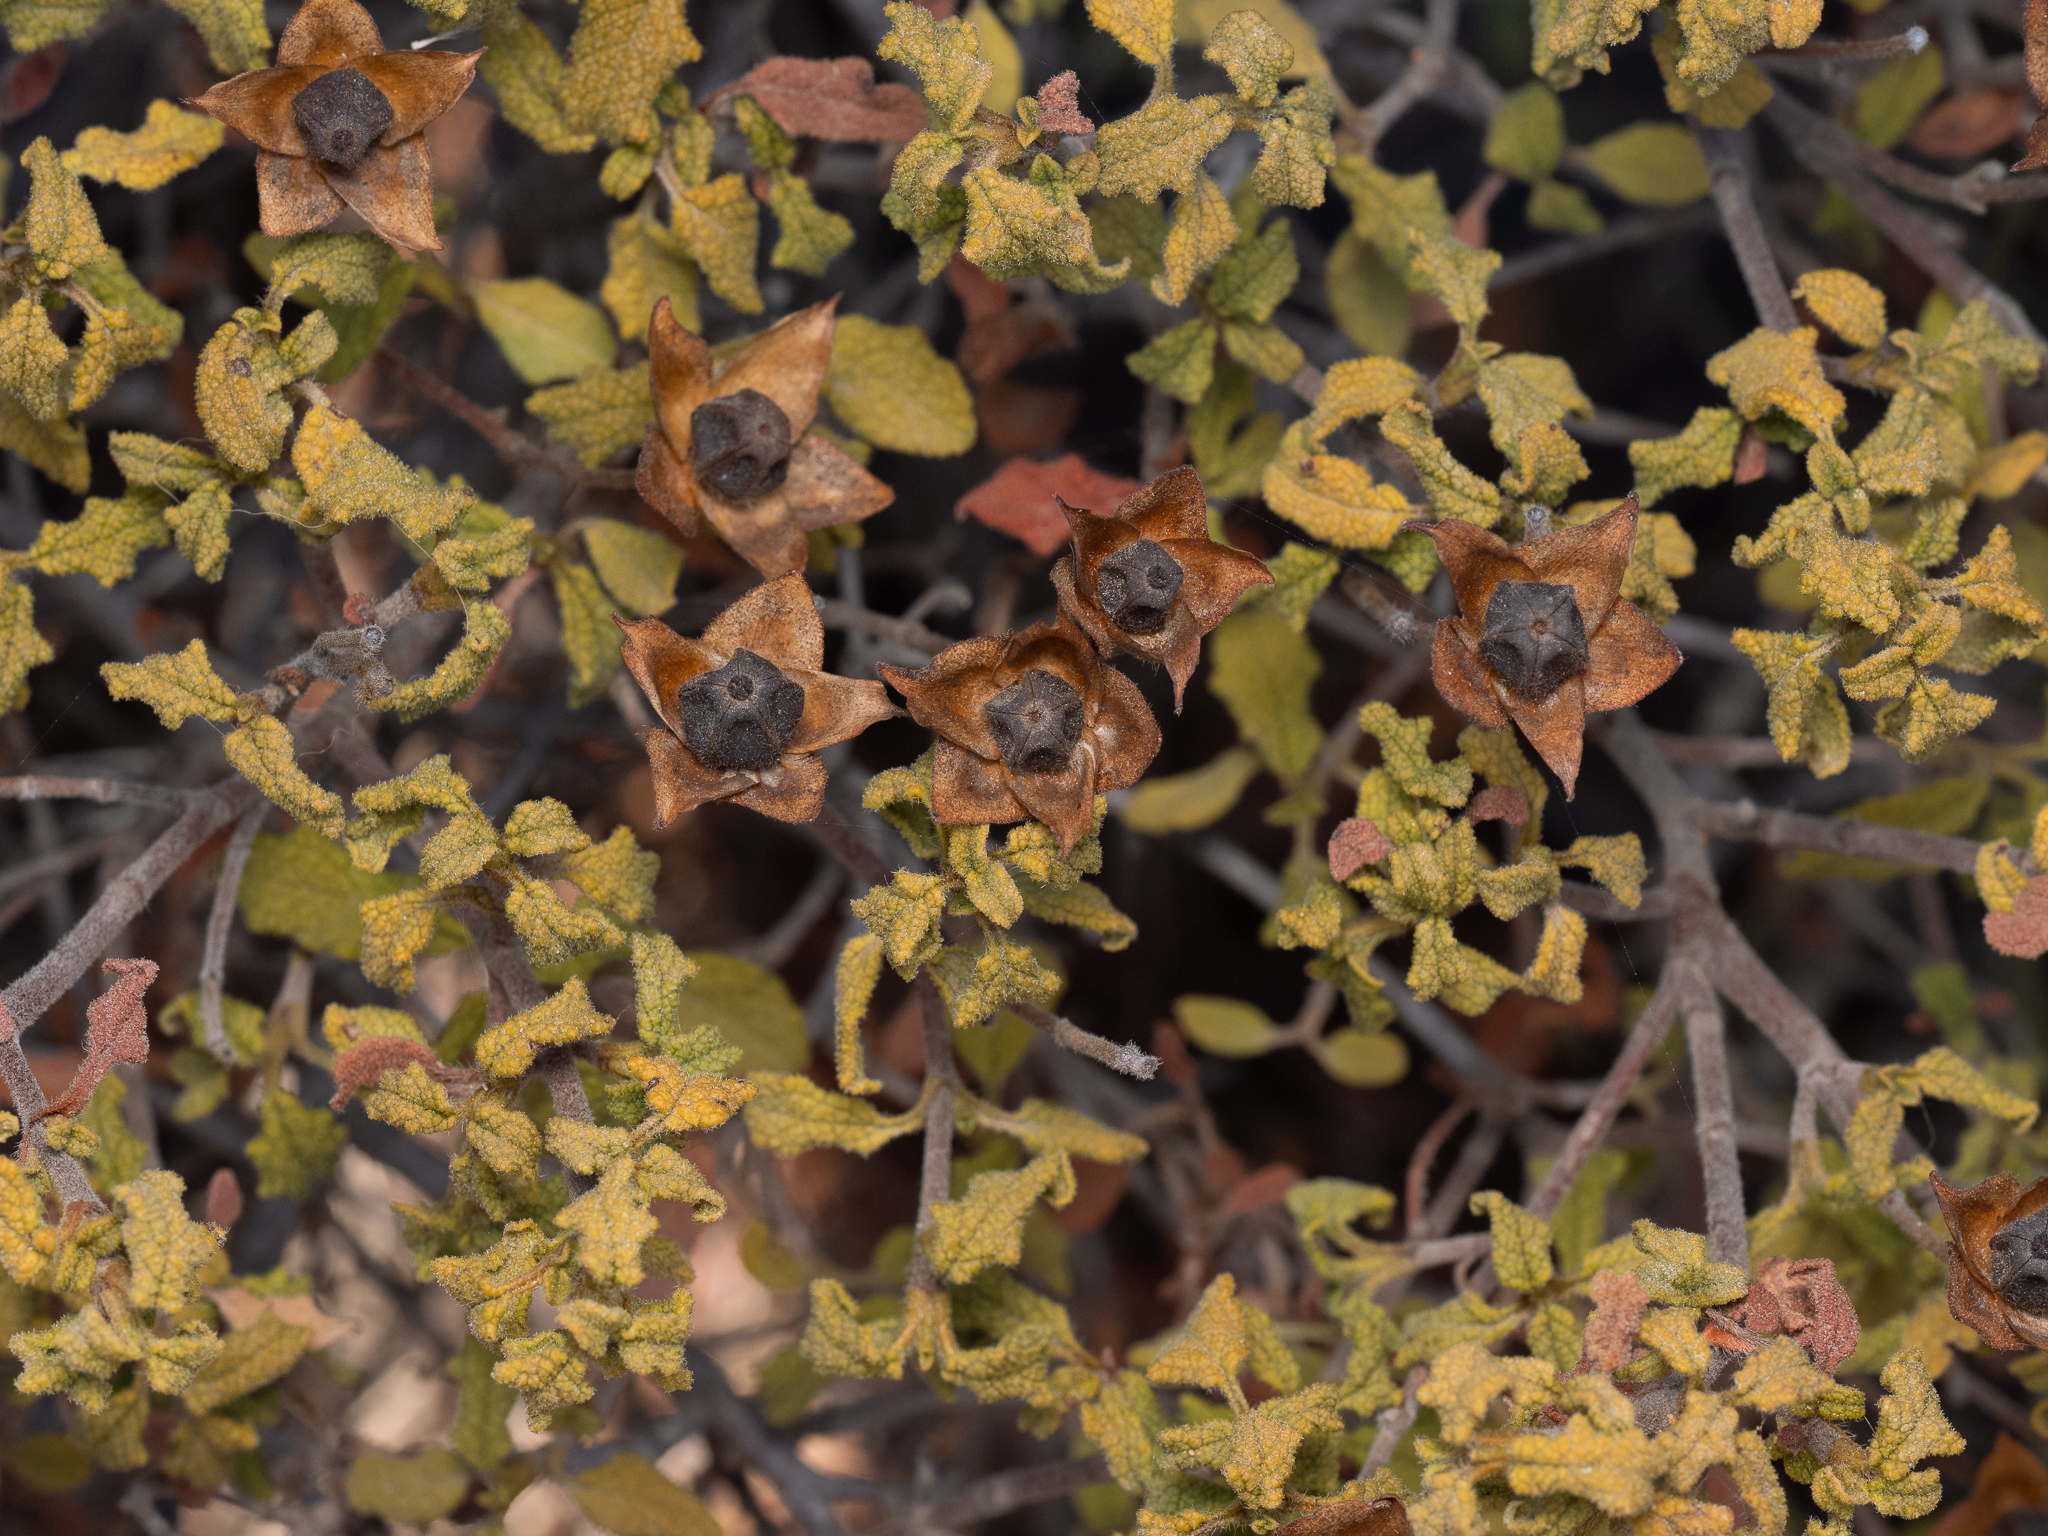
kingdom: Plantae
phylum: Tracheophyta
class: Magnoliopsida
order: Malvales
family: Cistaceae
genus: Cistus
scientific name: Cistus salviifolius
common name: Salvia cistus
